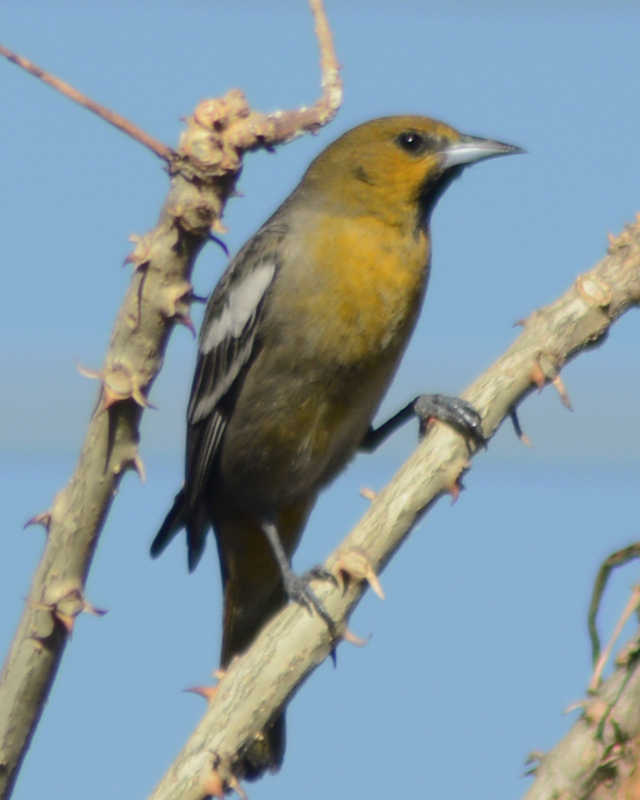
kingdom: Animalia
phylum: Chordata
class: Aves
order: Passeriformes
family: Icteridae
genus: Icterus
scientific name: Icterus abeillei
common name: Black-backed oriole
